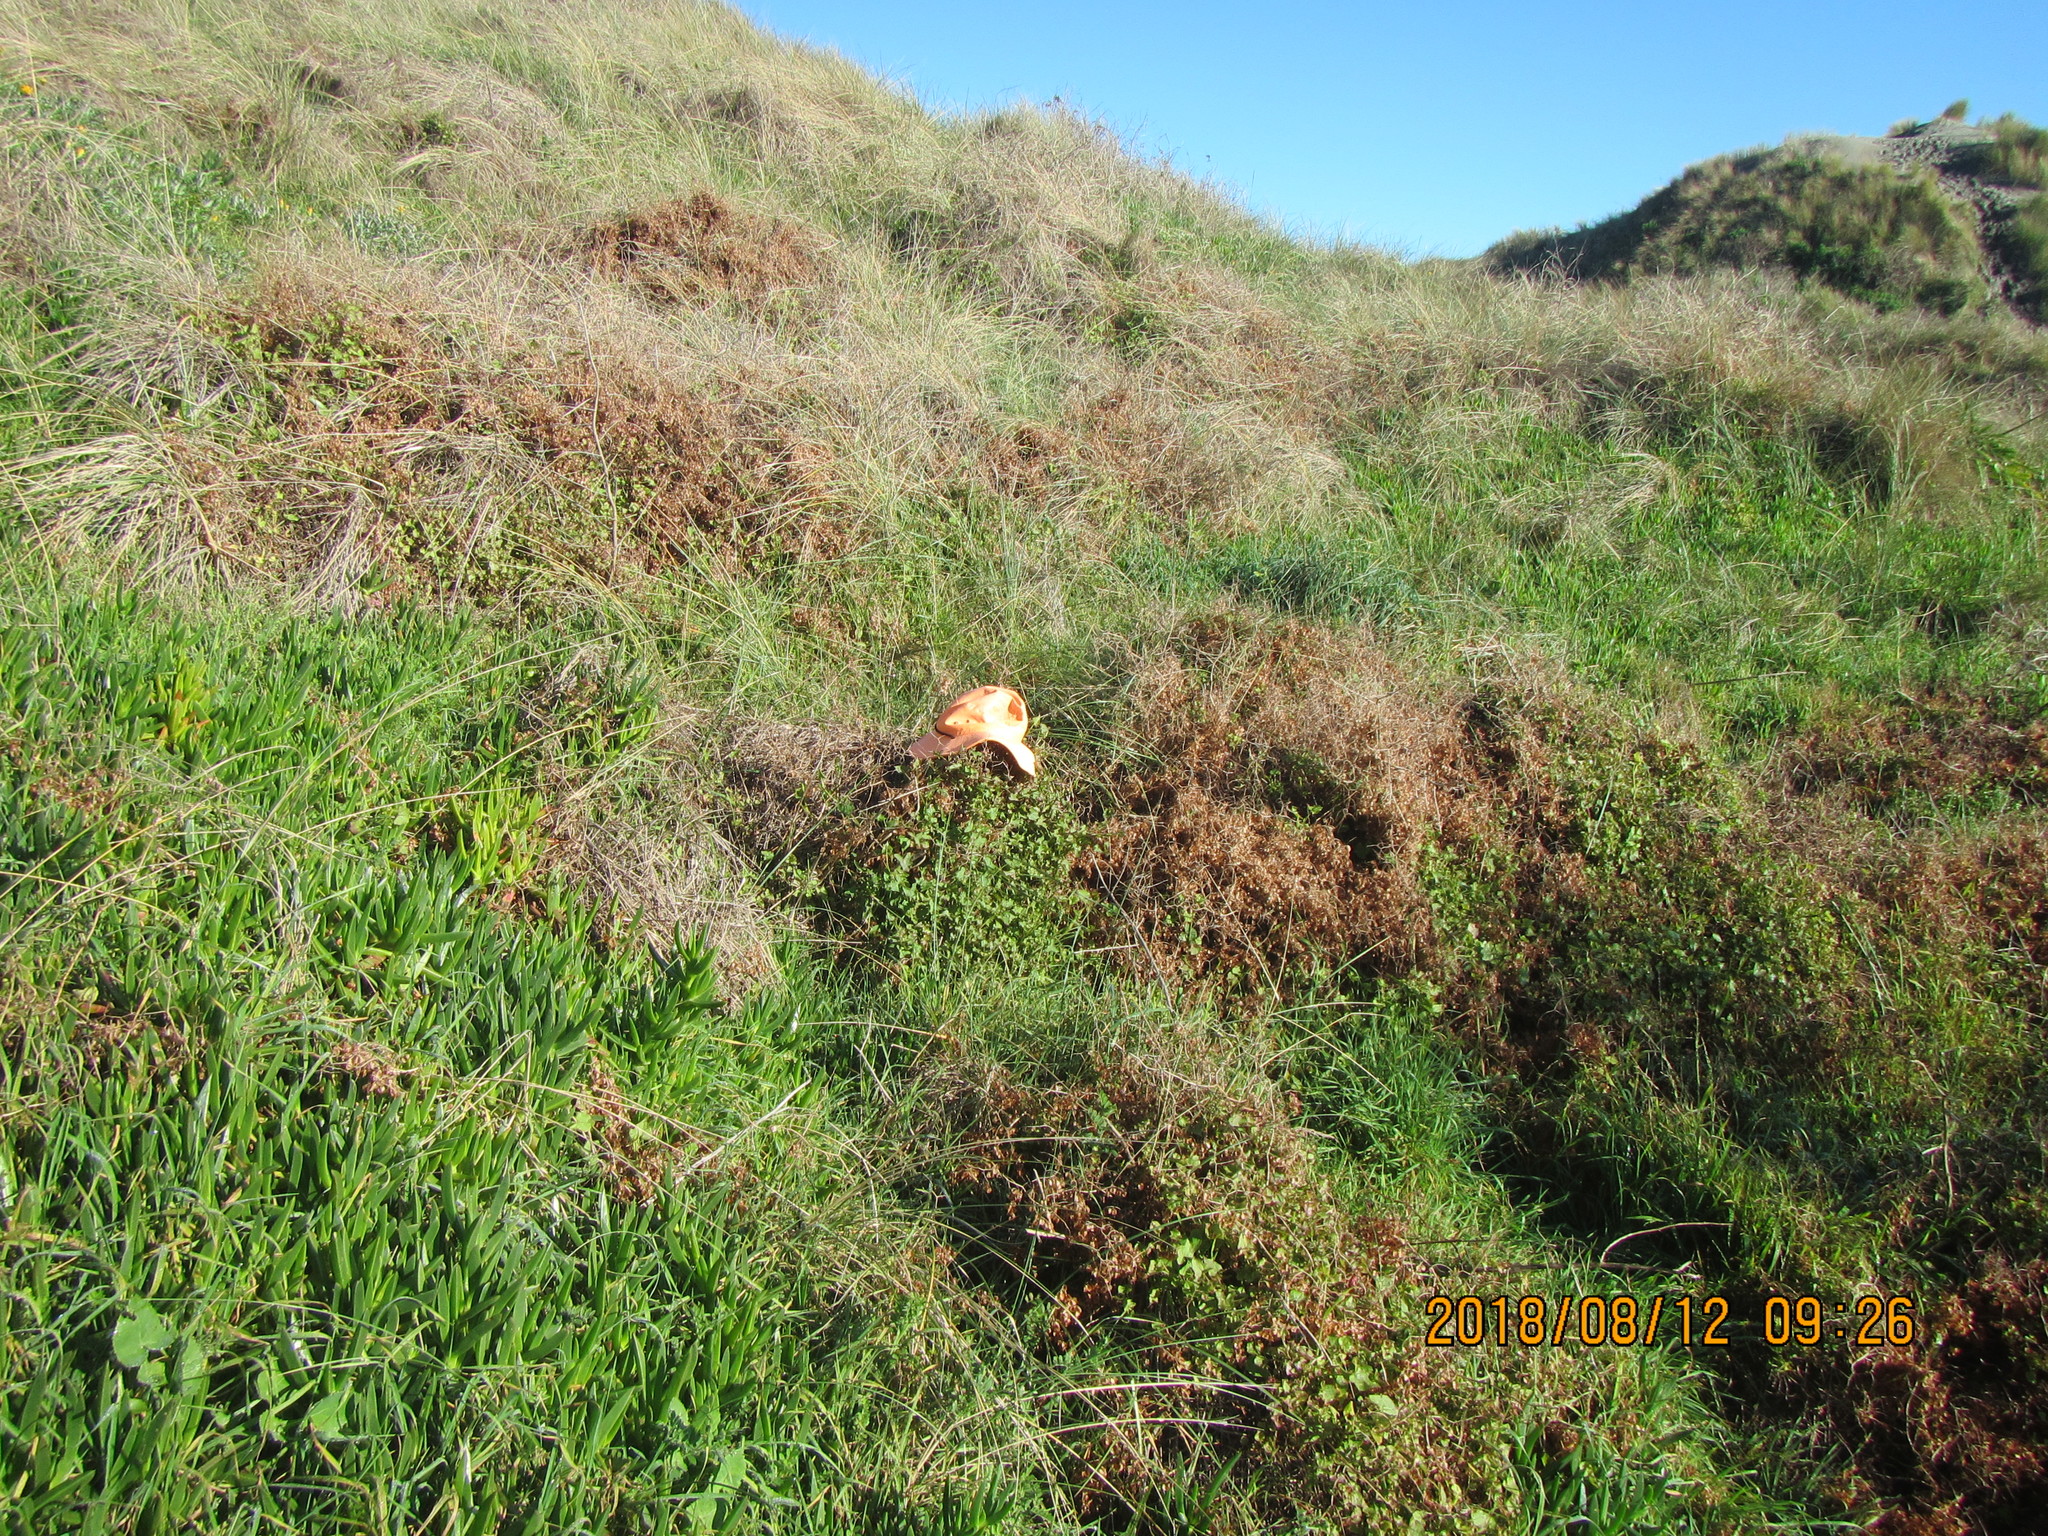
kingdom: Plantae
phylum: Tracheophyta
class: Magnoliopsida
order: Caryophyllales
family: Polygonaceae
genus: Rumex
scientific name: Rumex sagittatus
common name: Climbing dock
